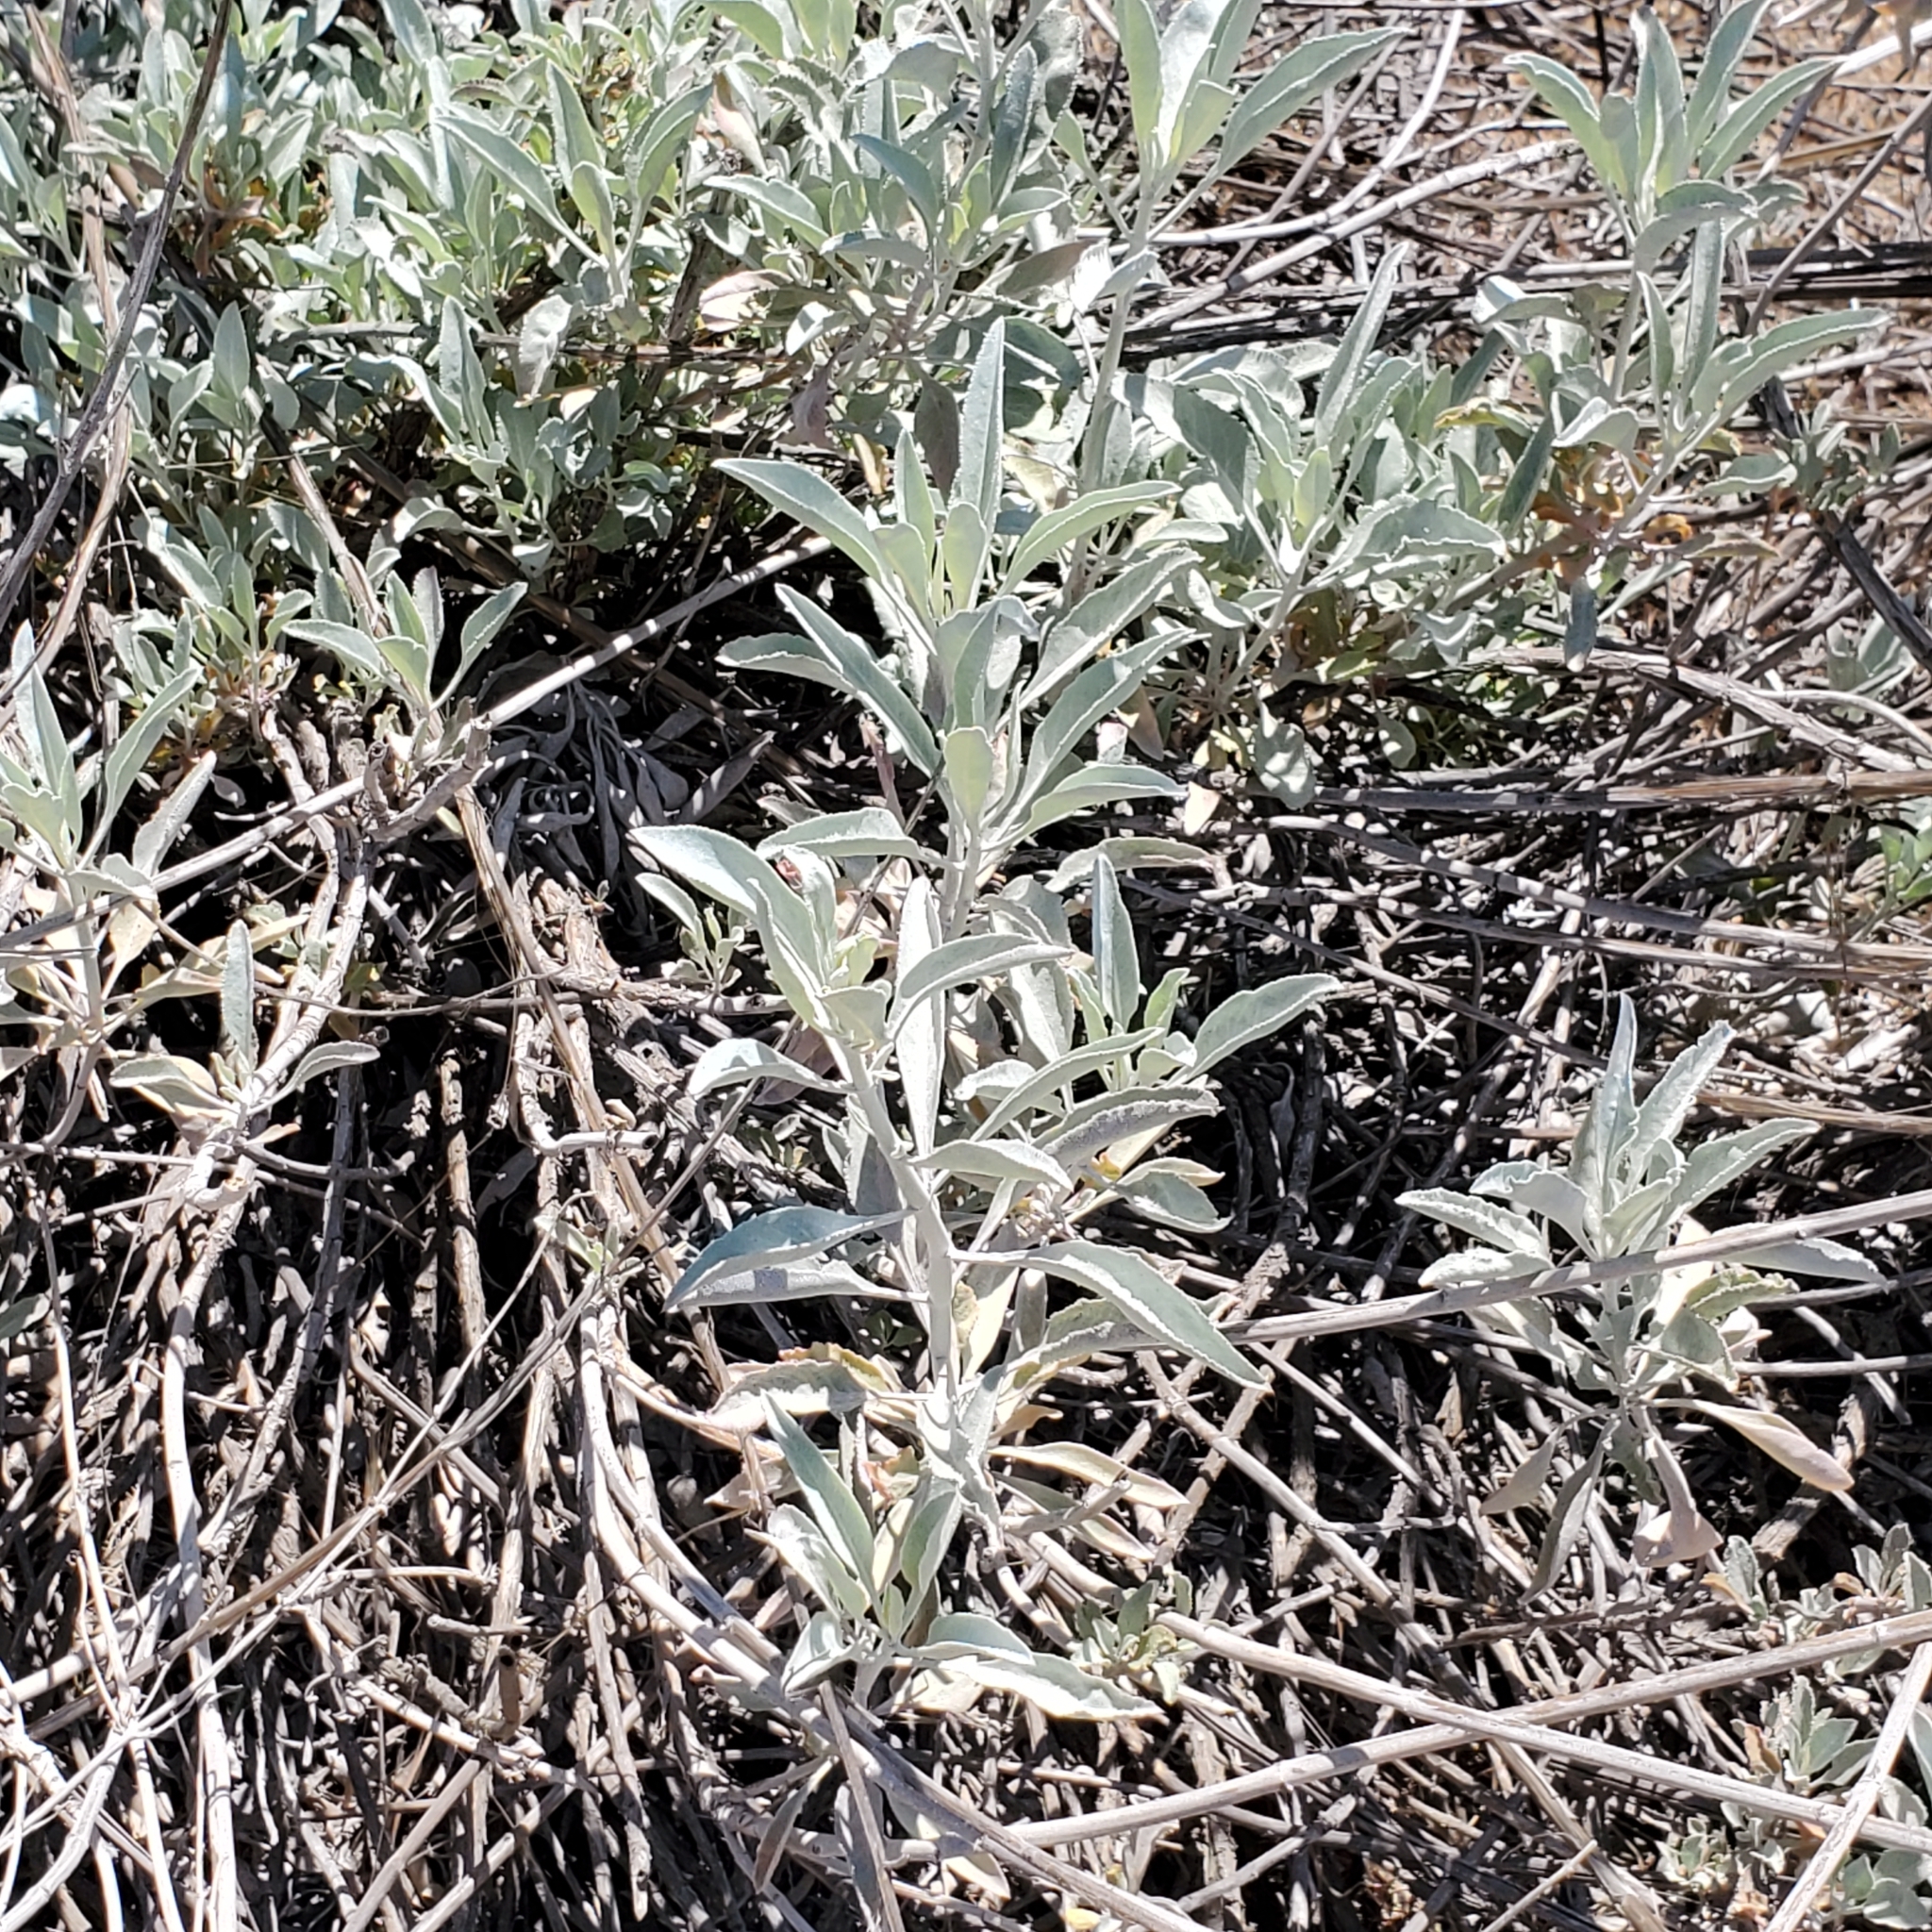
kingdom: Plantae
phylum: Tracheophyta
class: Magnoliopsida
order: Lamiales
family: Lamiaceae
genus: Salvia
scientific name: Salvia apiana
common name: White sage
